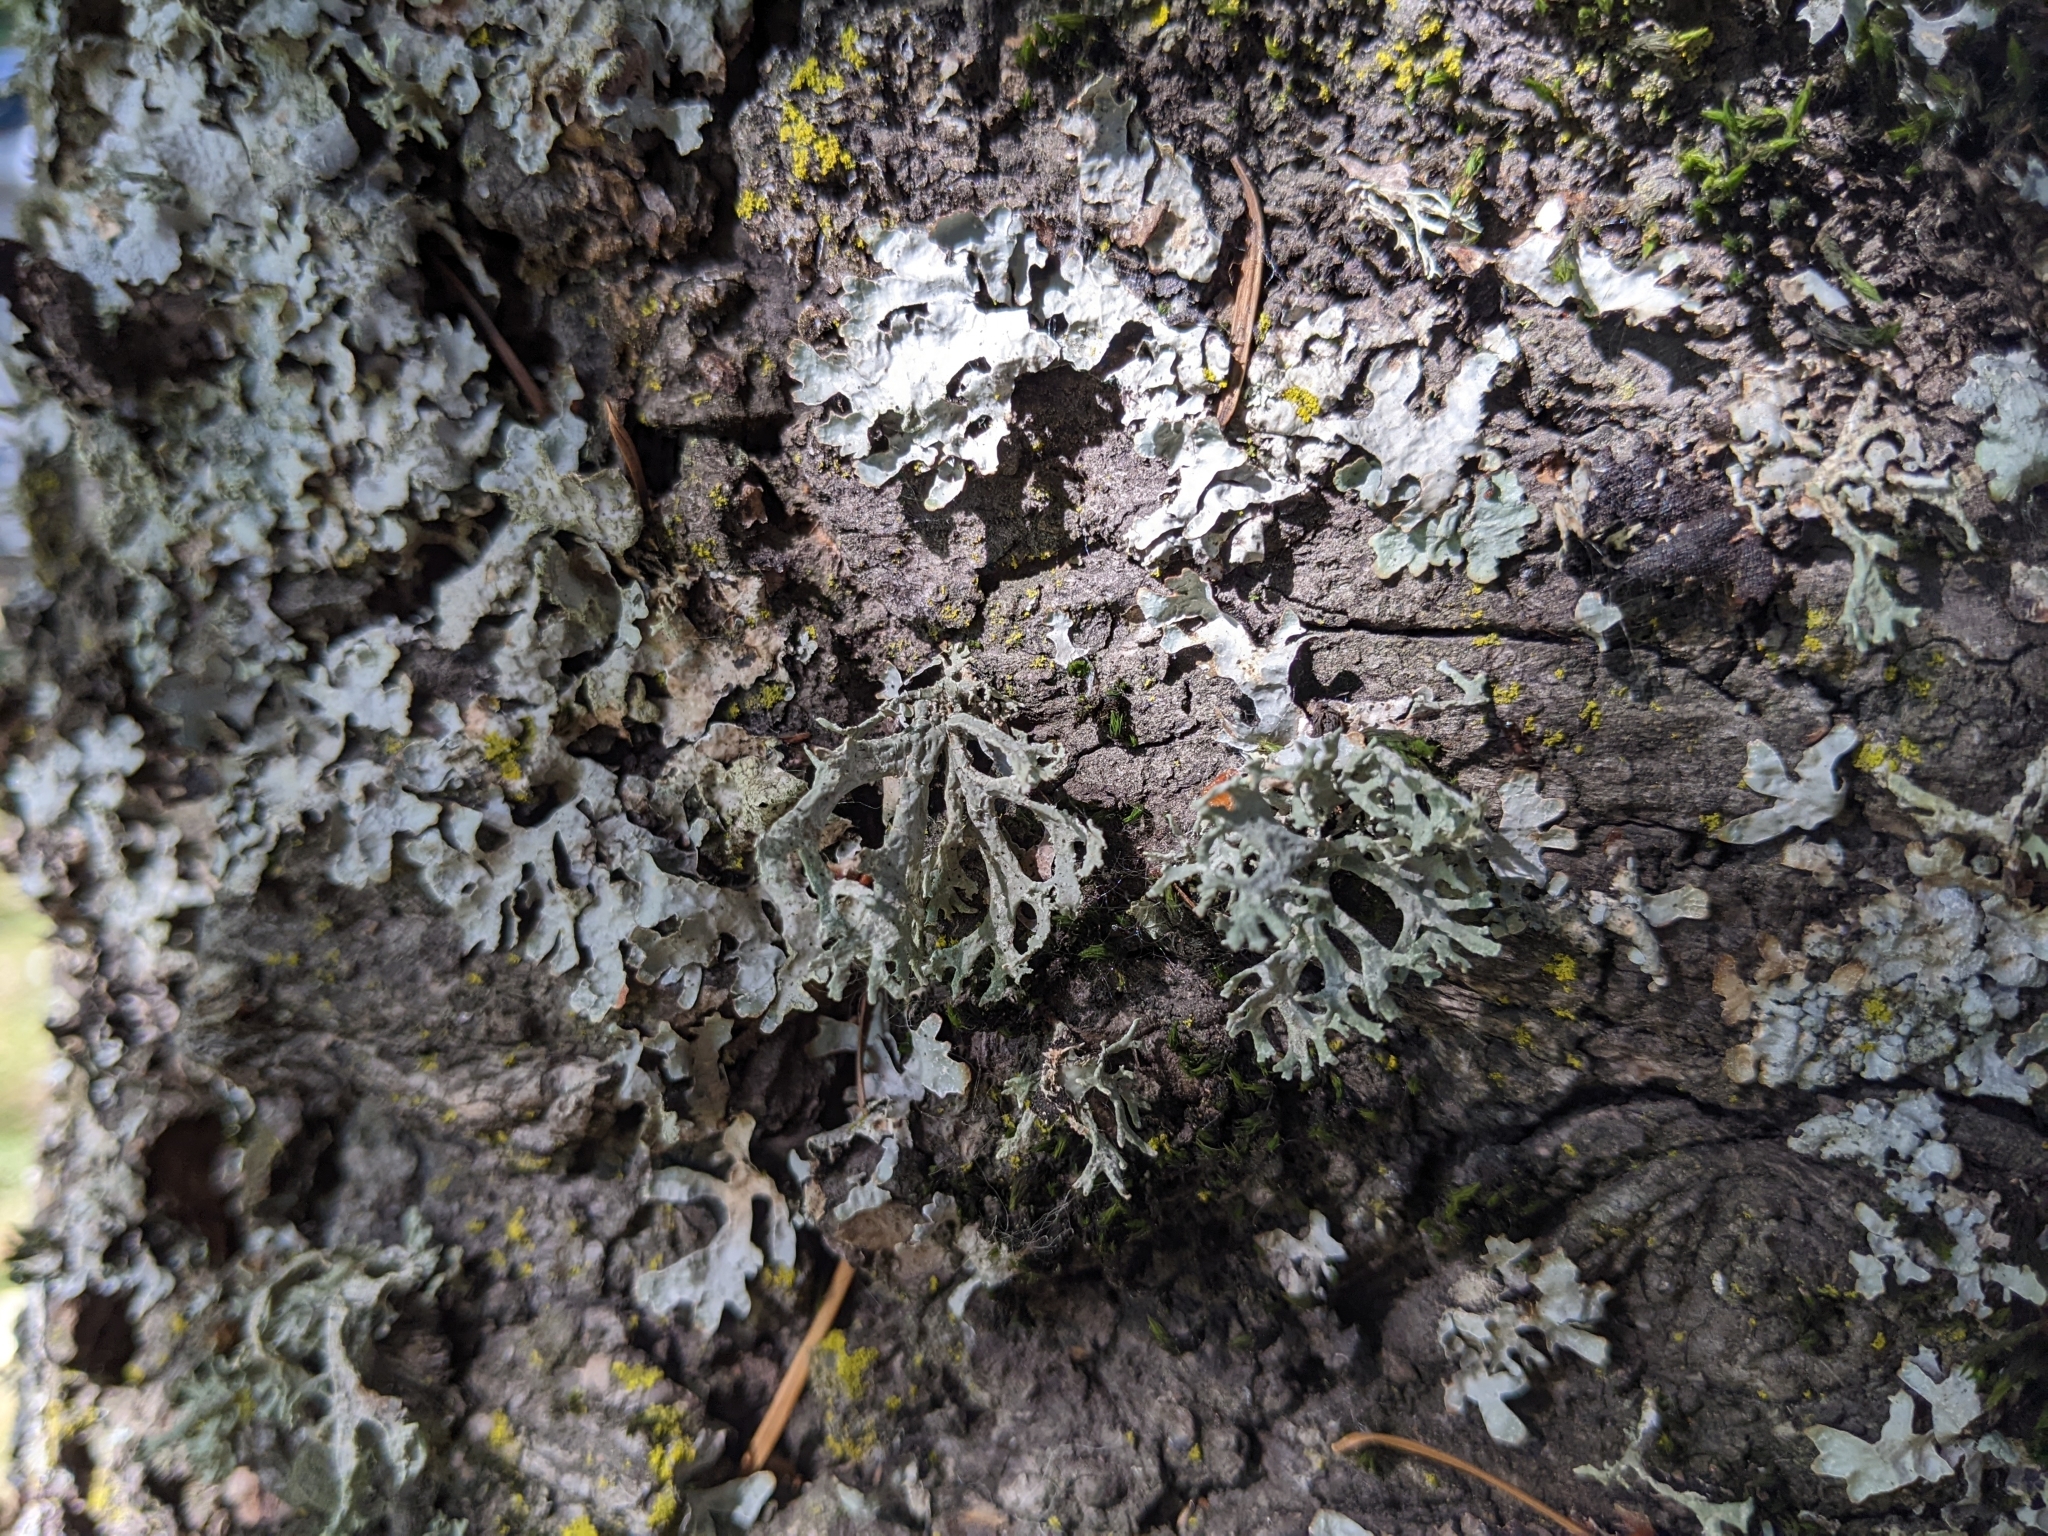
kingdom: Fungi
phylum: Ascomycota
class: Lecanoromycetes
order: Lecanorales
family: Parmeliaceae
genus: Evernia
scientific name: Evernia prunastri
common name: Oak moss
